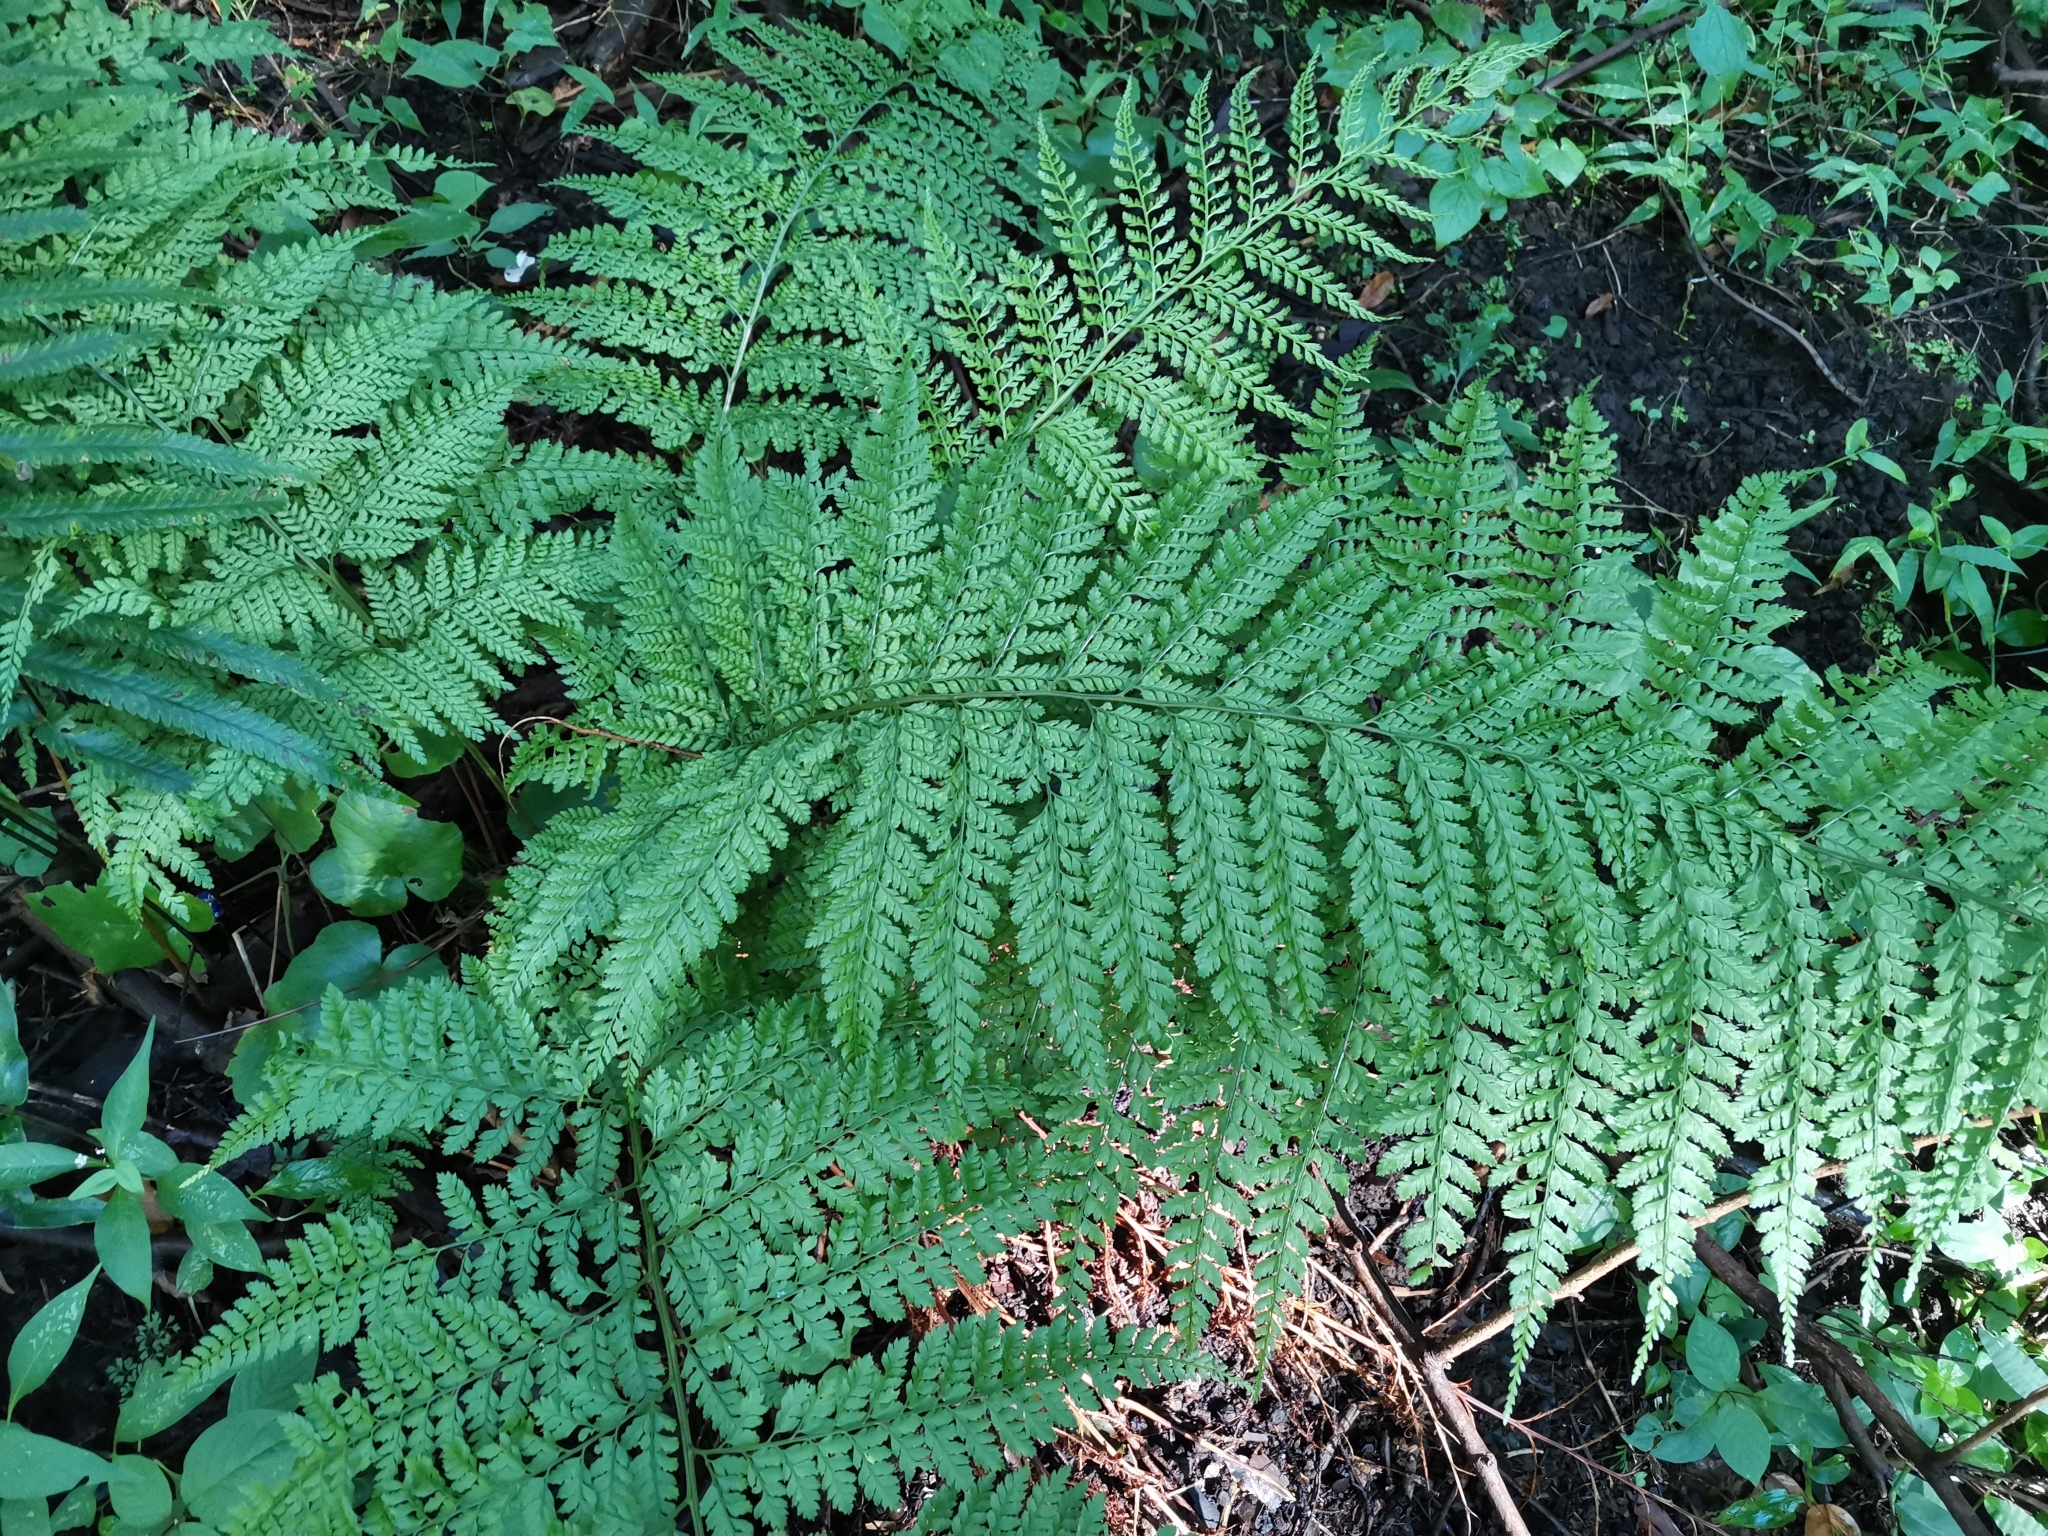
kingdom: Plantae
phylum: Tracheophyta
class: Polypodiopsida
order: Polypodiales
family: Dryopteridaceae
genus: Arachniodes
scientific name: Arachniodes standishii
